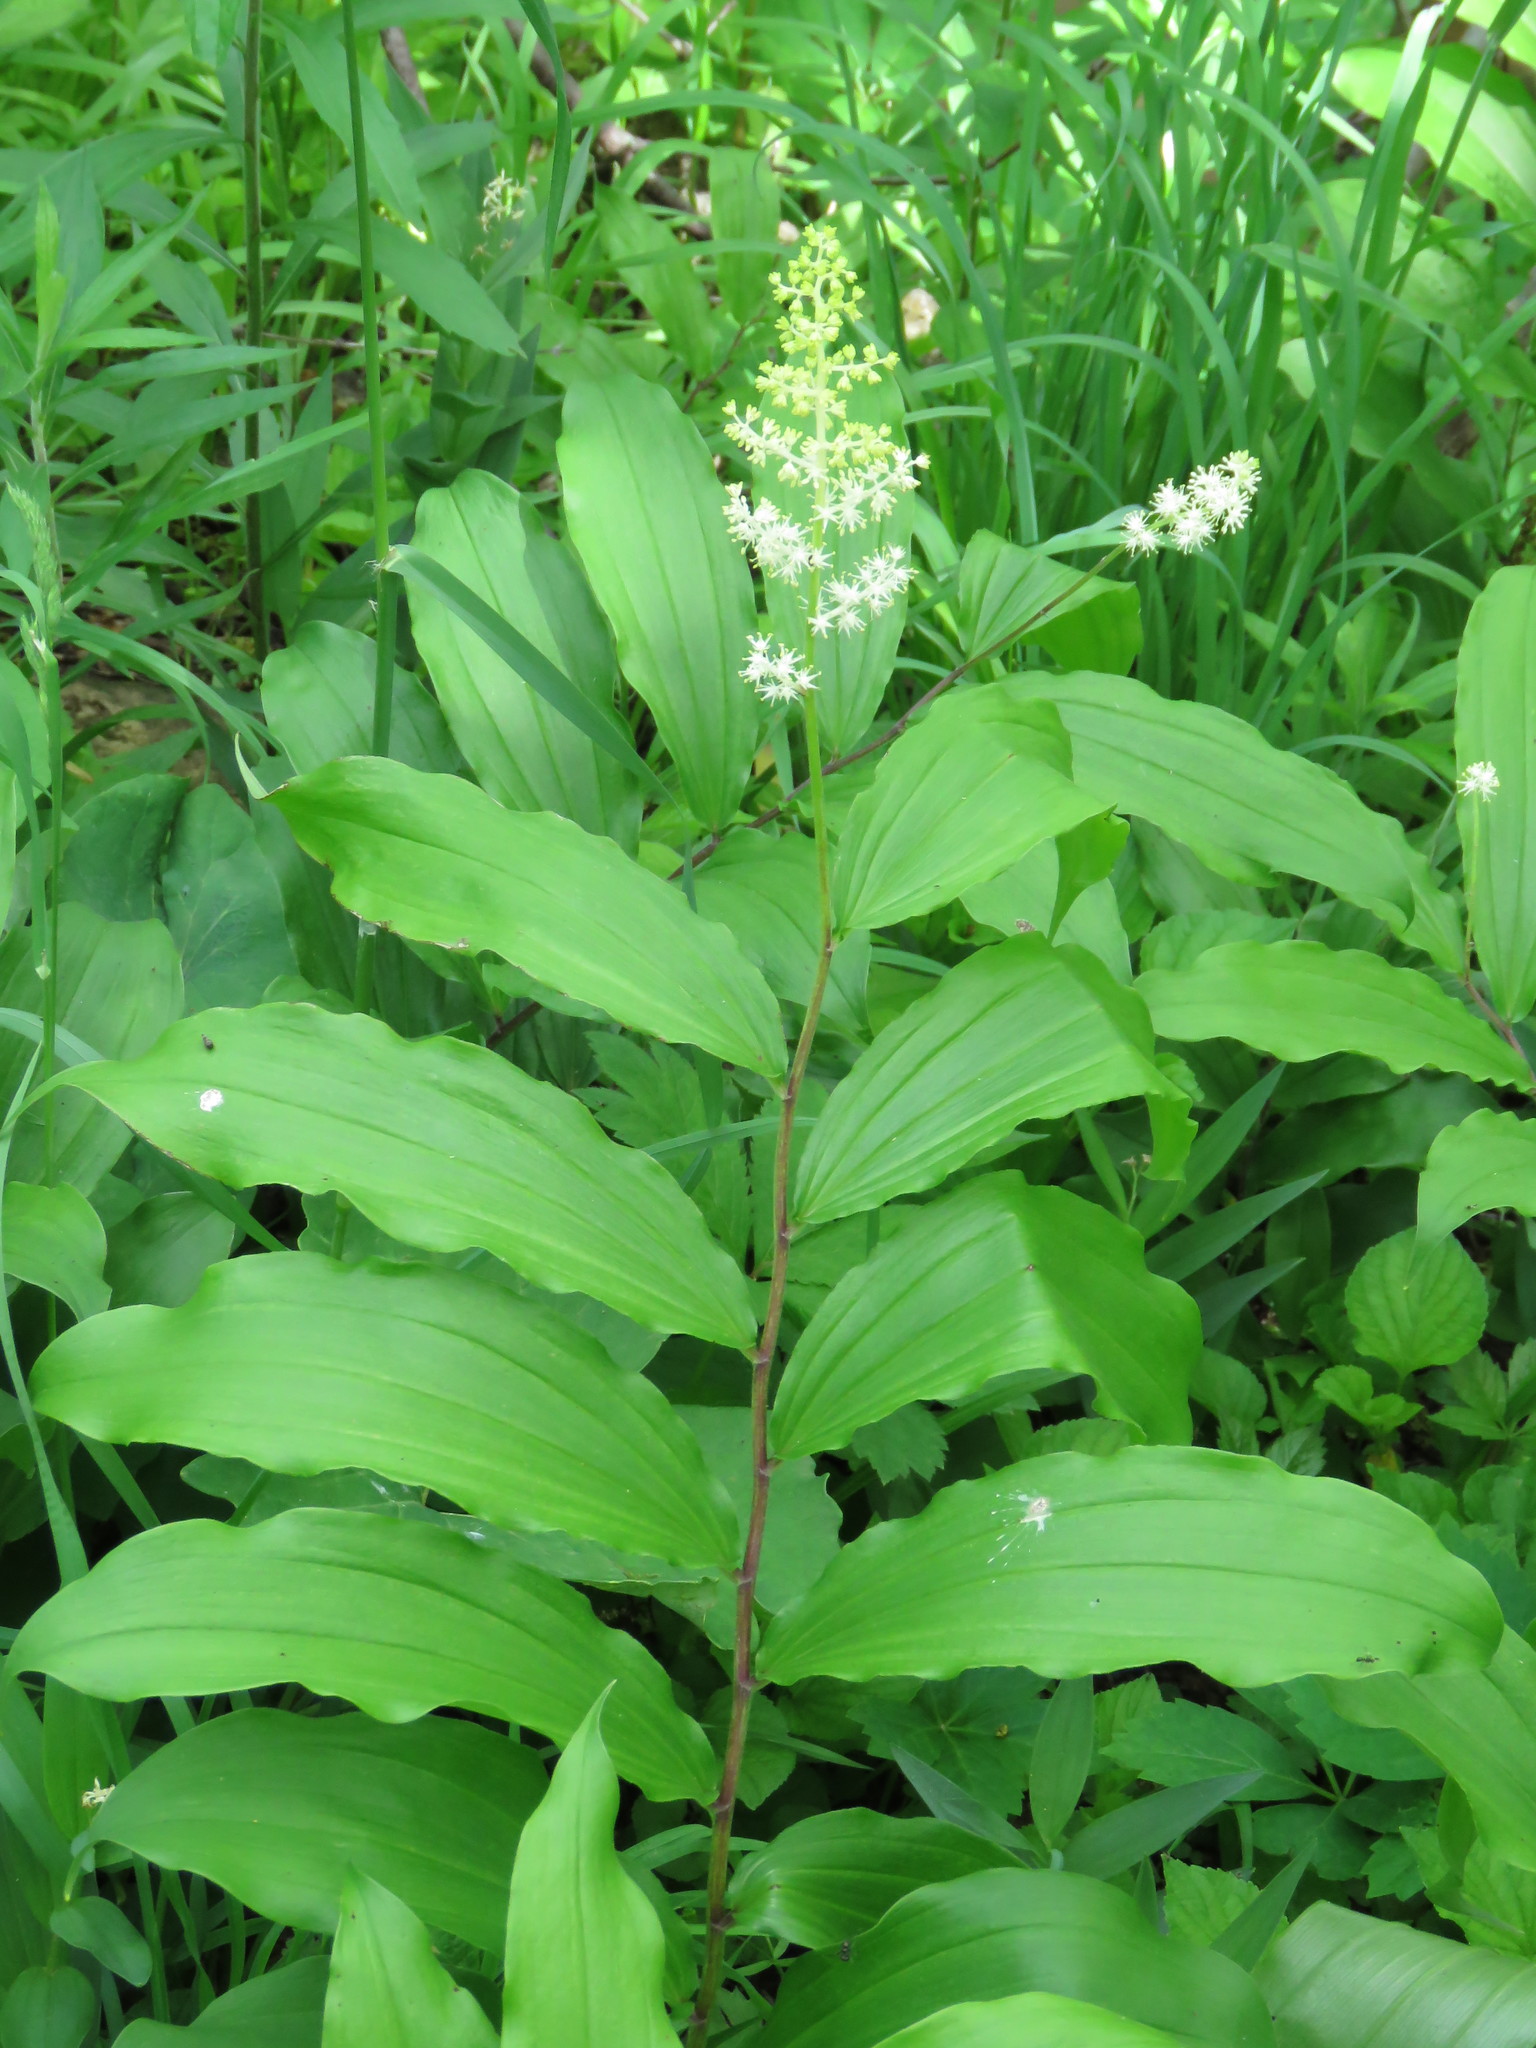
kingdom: Plantae
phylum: Tracheophyta
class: Liliopsida
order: Asparagales
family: Asparagaceae
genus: Maianthemum
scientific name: Maianthemum racemosum
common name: False spikenard
